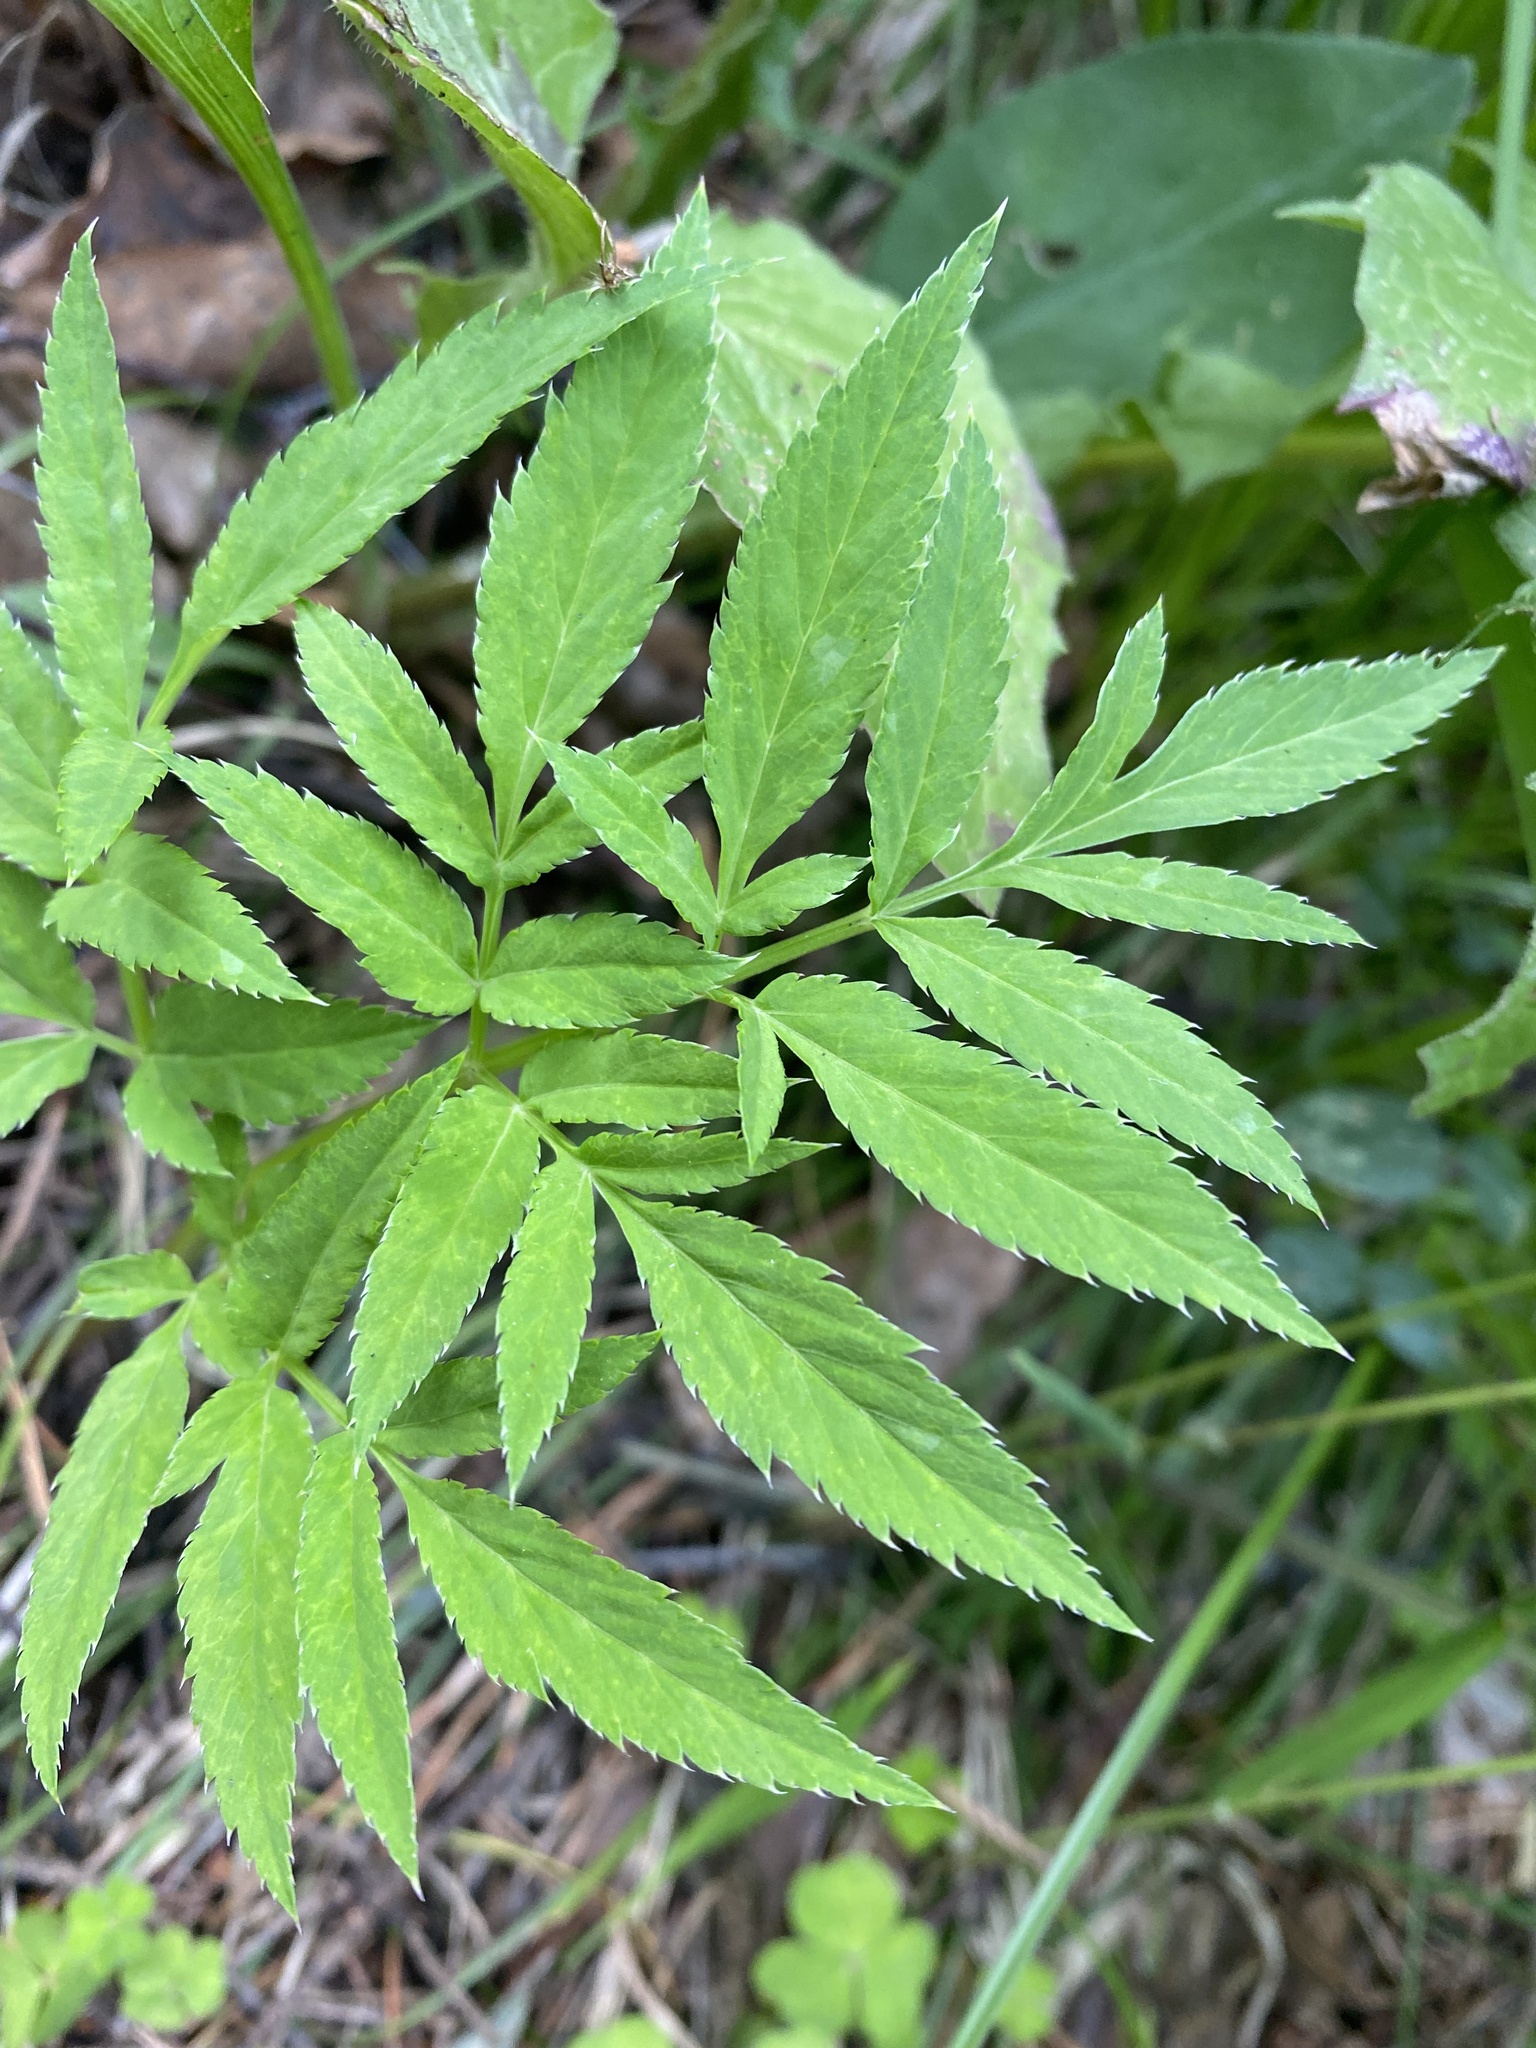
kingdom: Plantae
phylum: Tracheophyta
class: Magnoliopsida
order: Apiales
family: Apiaceae
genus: Angelica
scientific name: Angelica sylvestris
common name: Wild angelica
